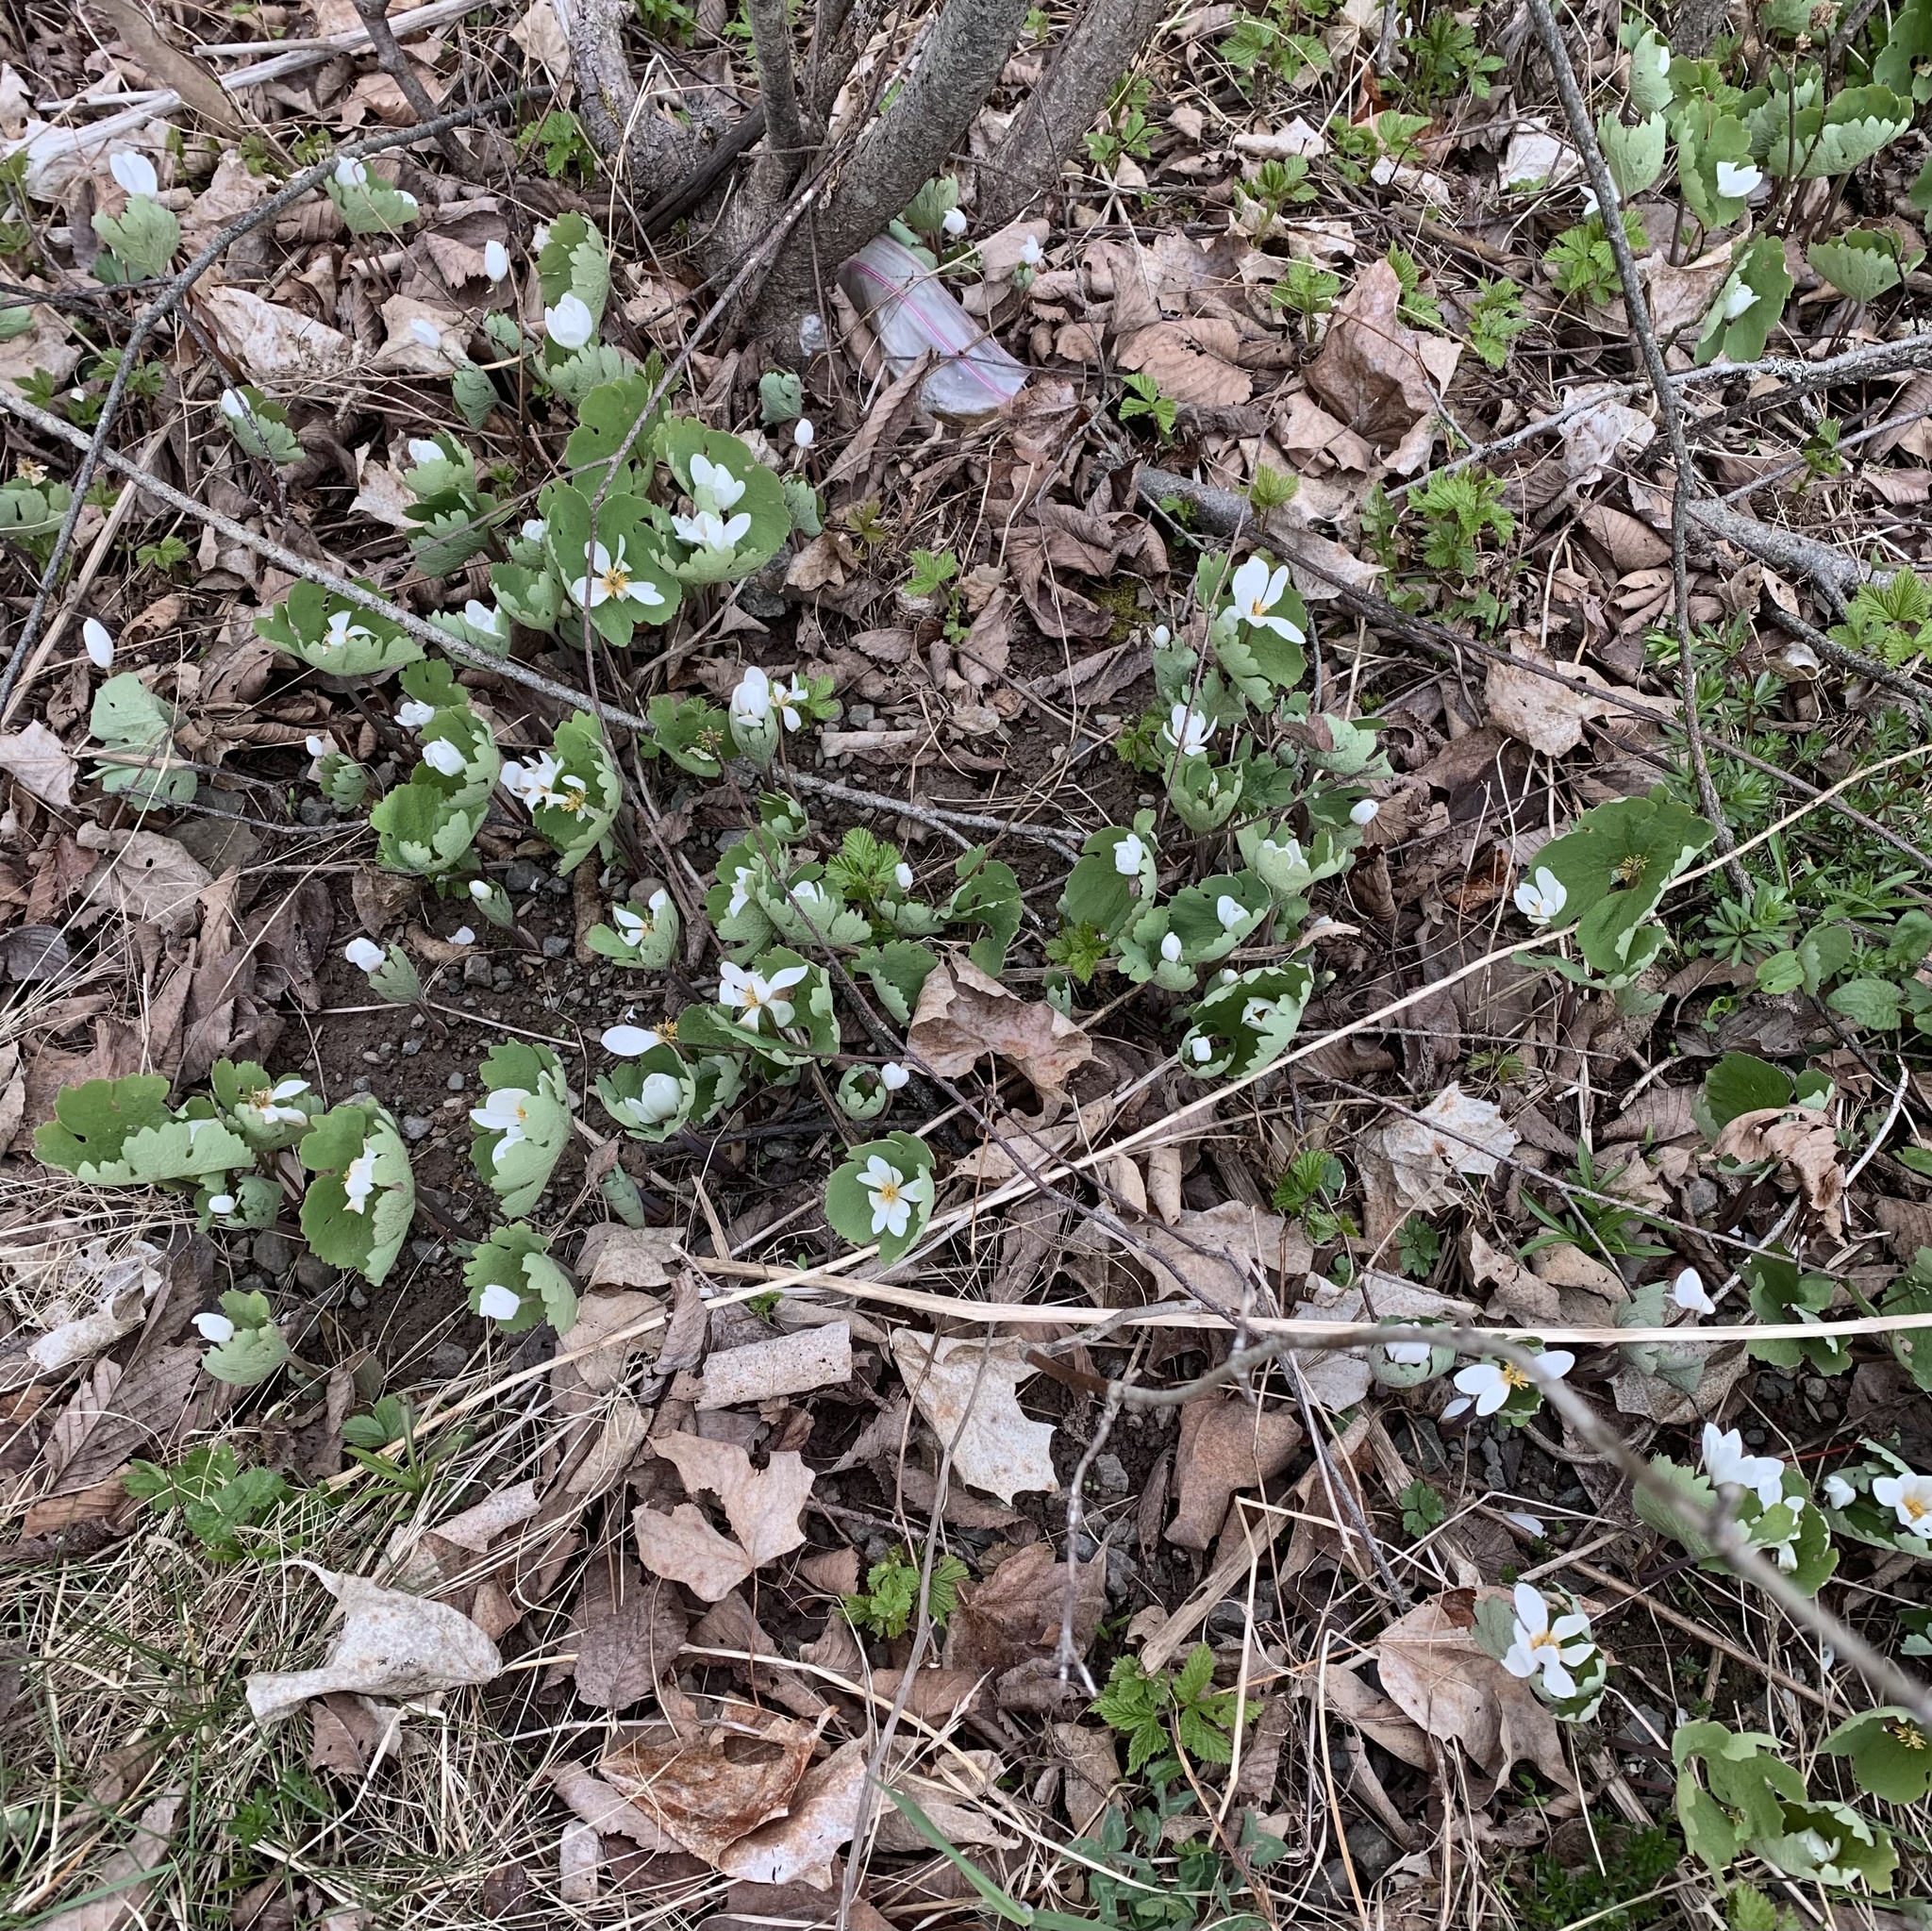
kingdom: Plantae
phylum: Tracheophyta
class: Magnoliopsida
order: Ranunculales
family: Papaveraceae
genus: Sanguinaria
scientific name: Sanguinaria canadensis
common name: Bloodroot
